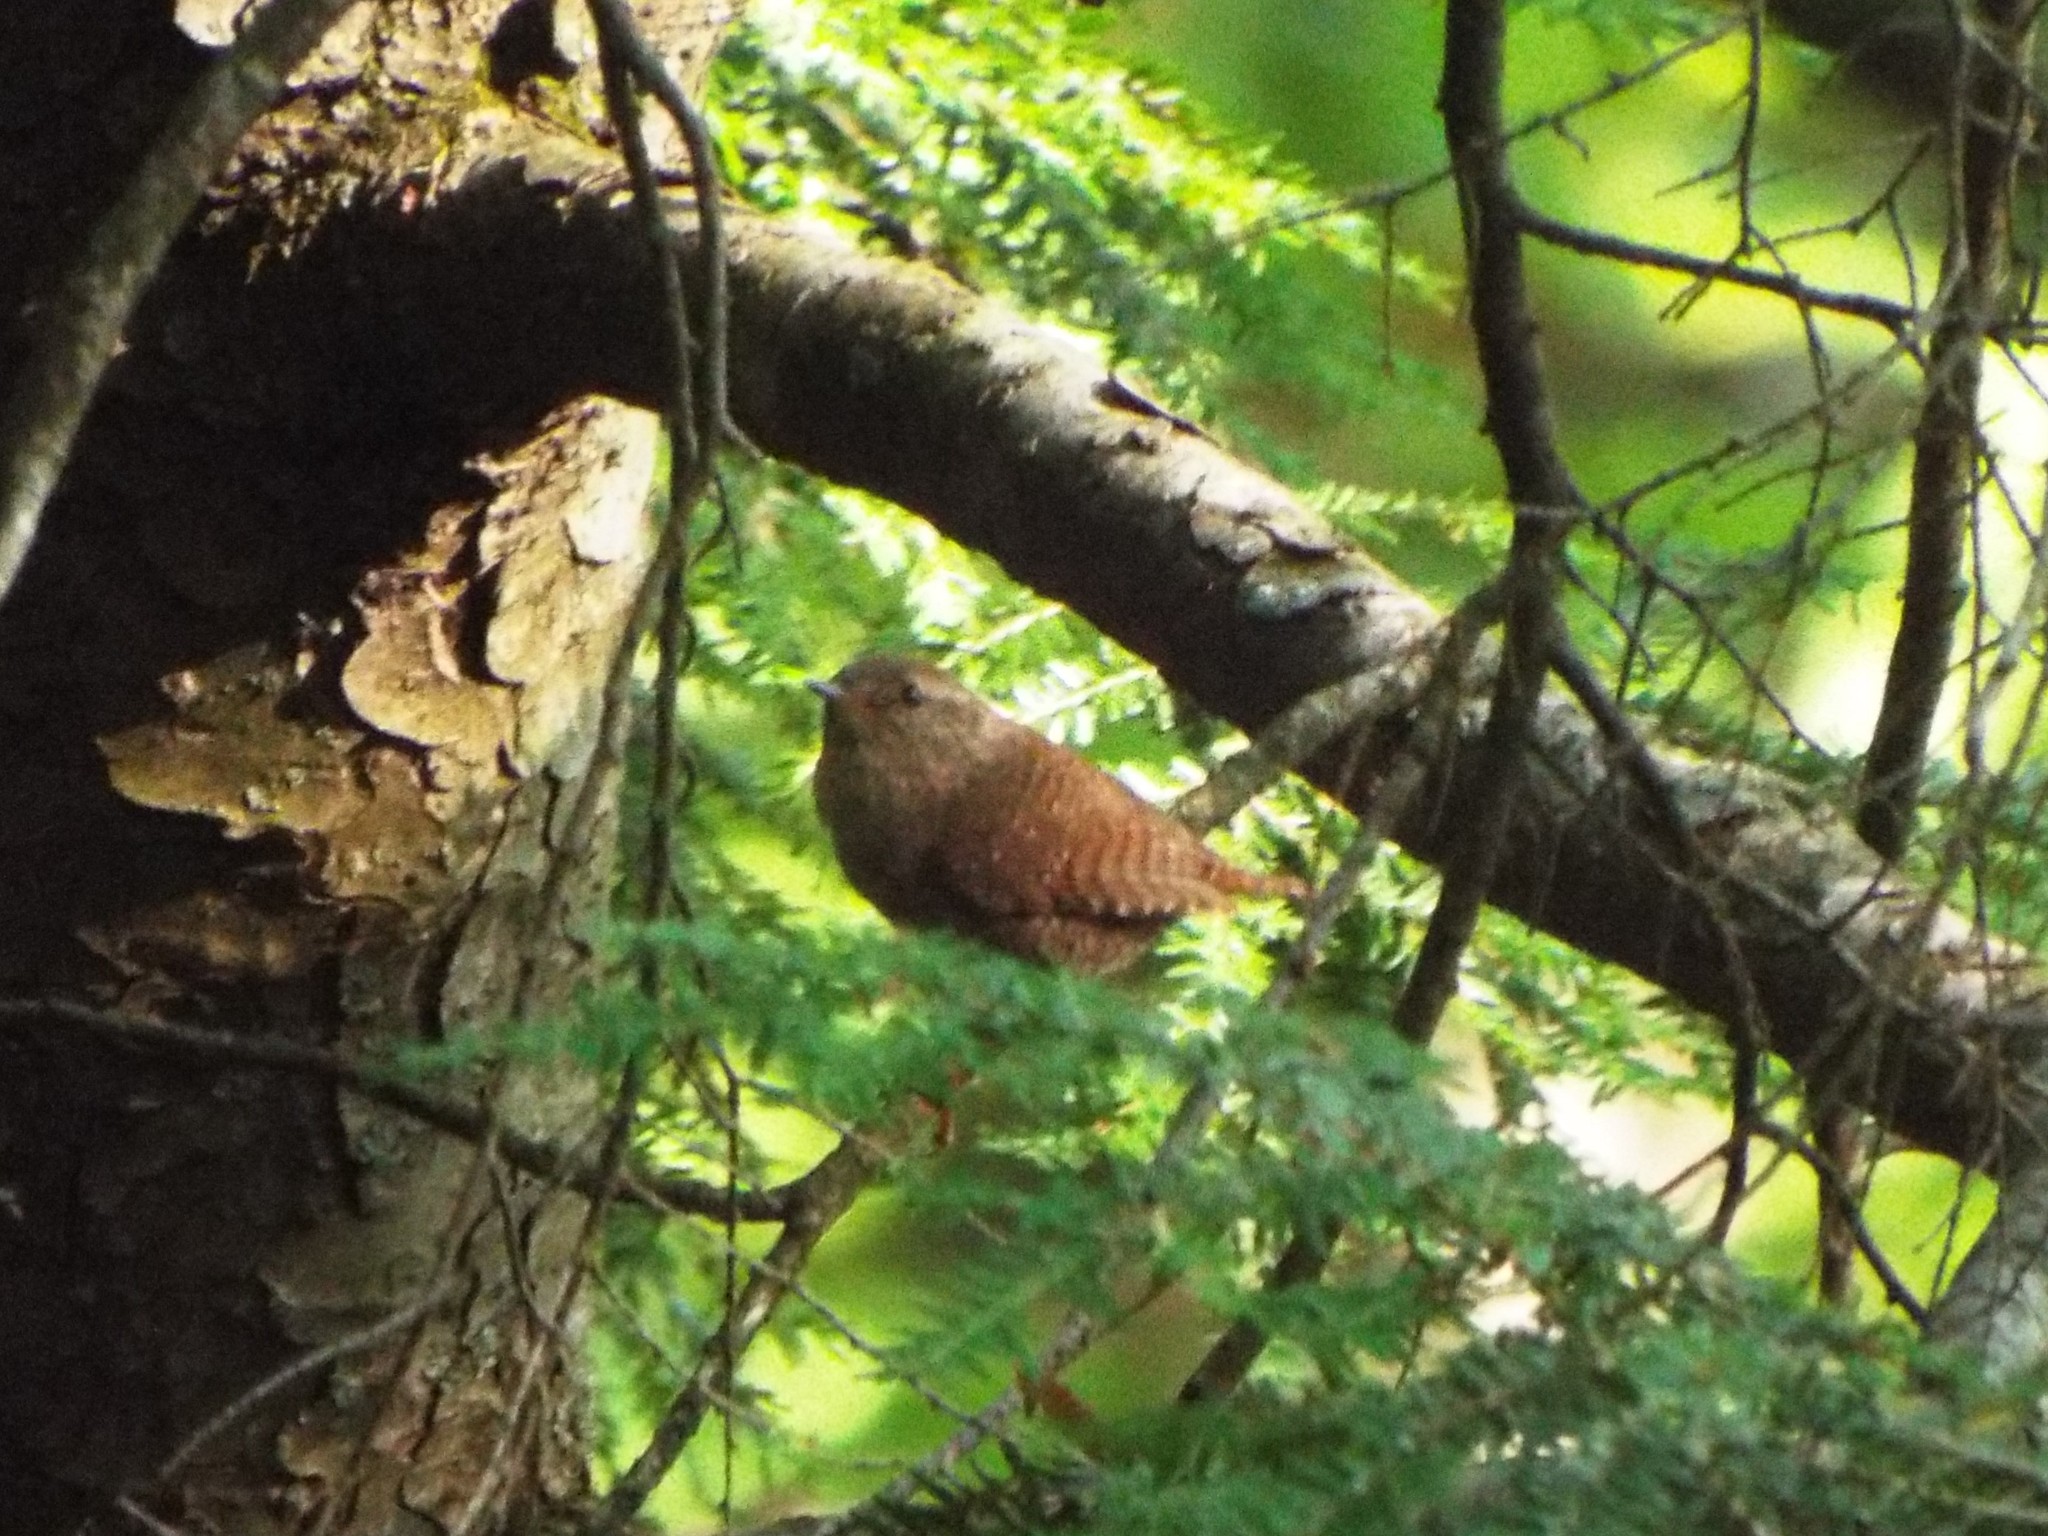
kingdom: Animalia
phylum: Chordata
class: Aves
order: Passeriformes
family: Troglodytidae
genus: Troglodytes
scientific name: Troglodytes hiemalis
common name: Winter wren
